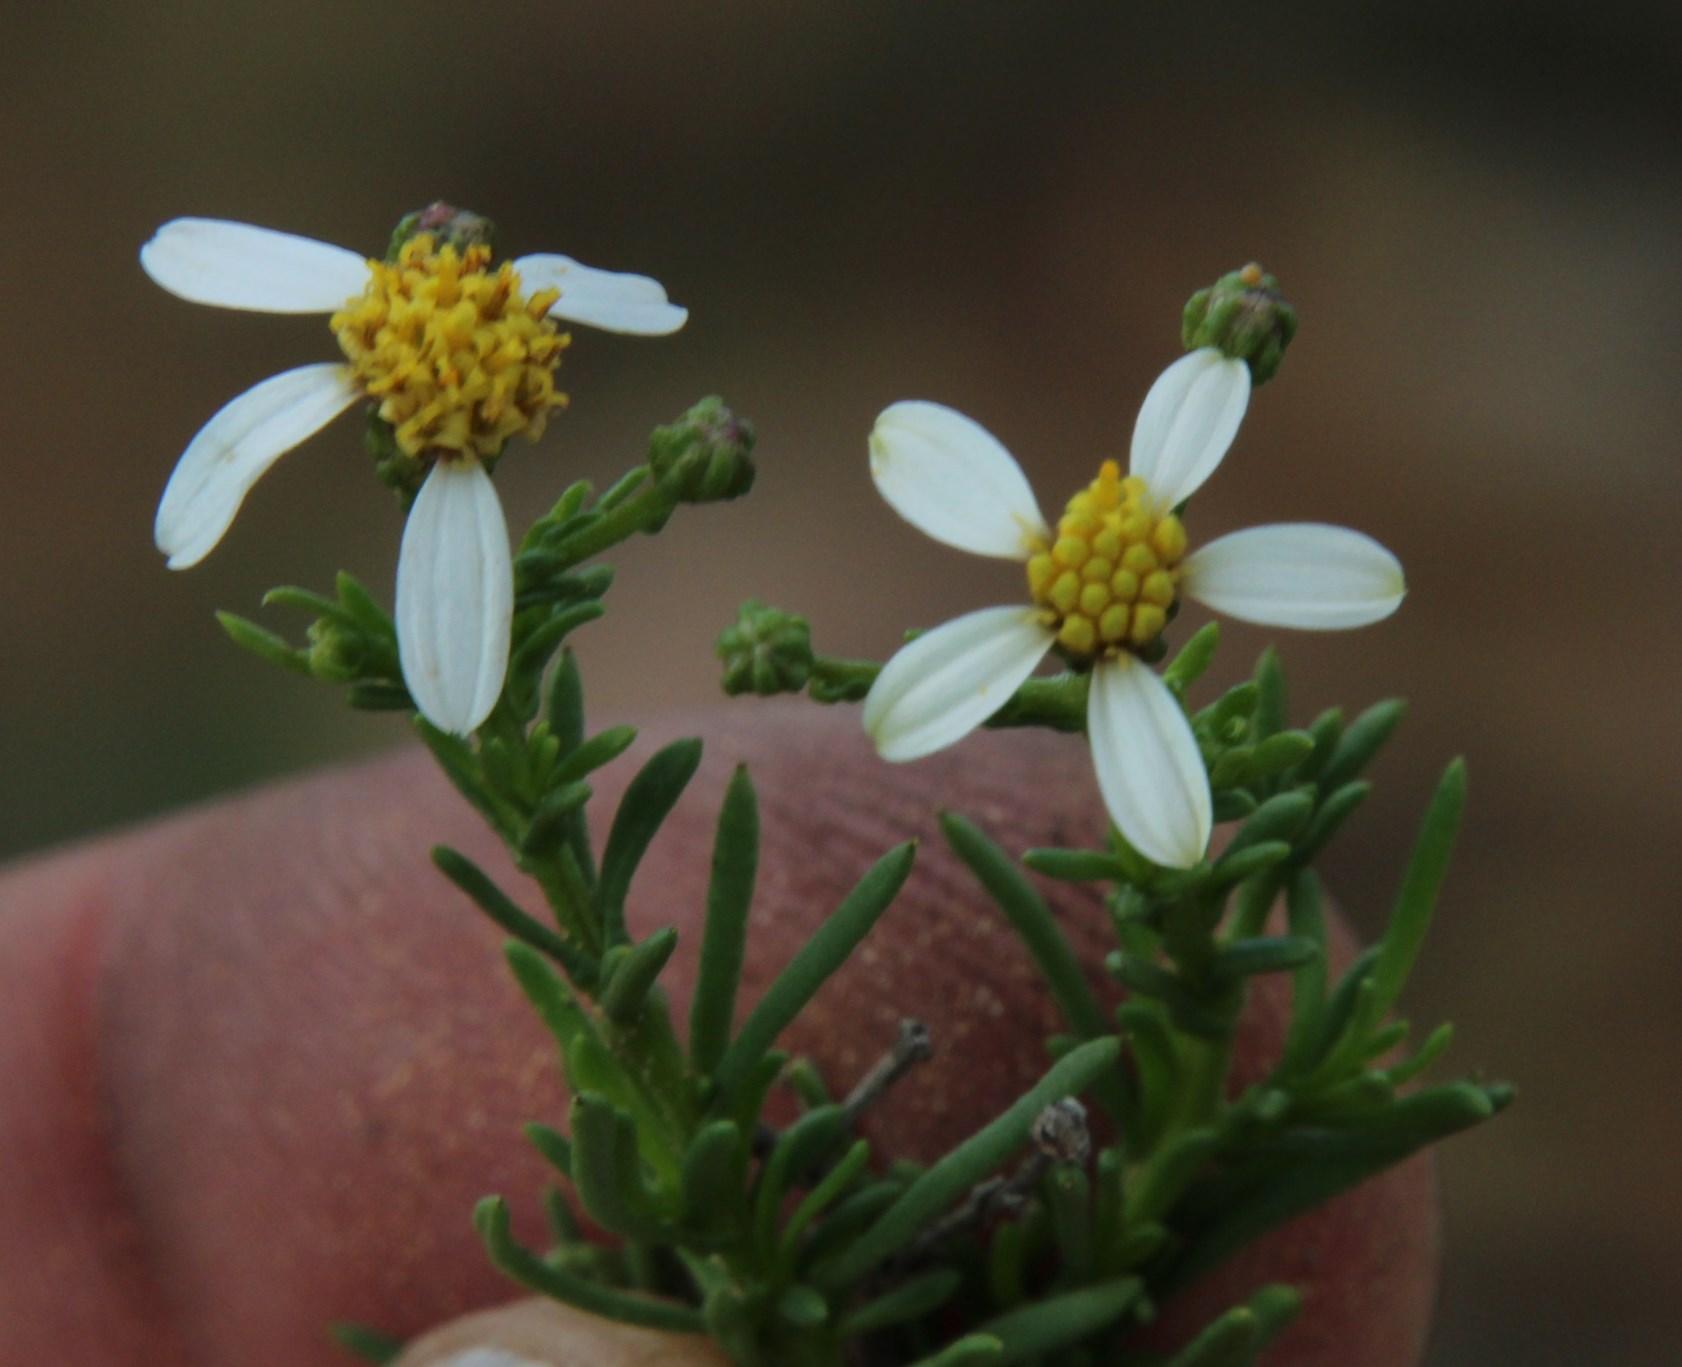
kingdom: Plantae
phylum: Tracheophyta
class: Magnoliopsida
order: Asterales
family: Asteraceae
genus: Phymaspermum
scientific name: Phymaspermum parvifolium
